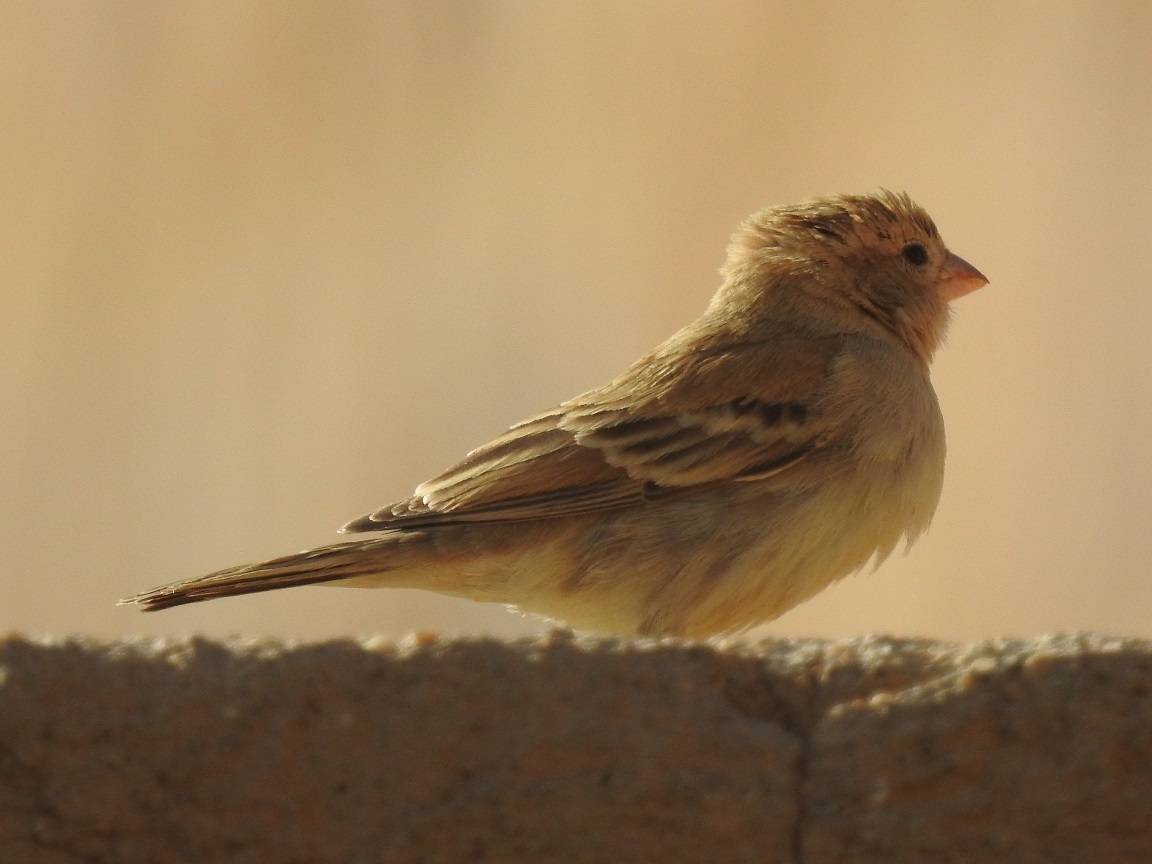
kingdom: Animalia
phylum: Chordata
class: Aves
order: Passeriformes
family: Passeridae
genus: Passer
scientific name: Passer luteus
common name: Sudan golden sparrow
